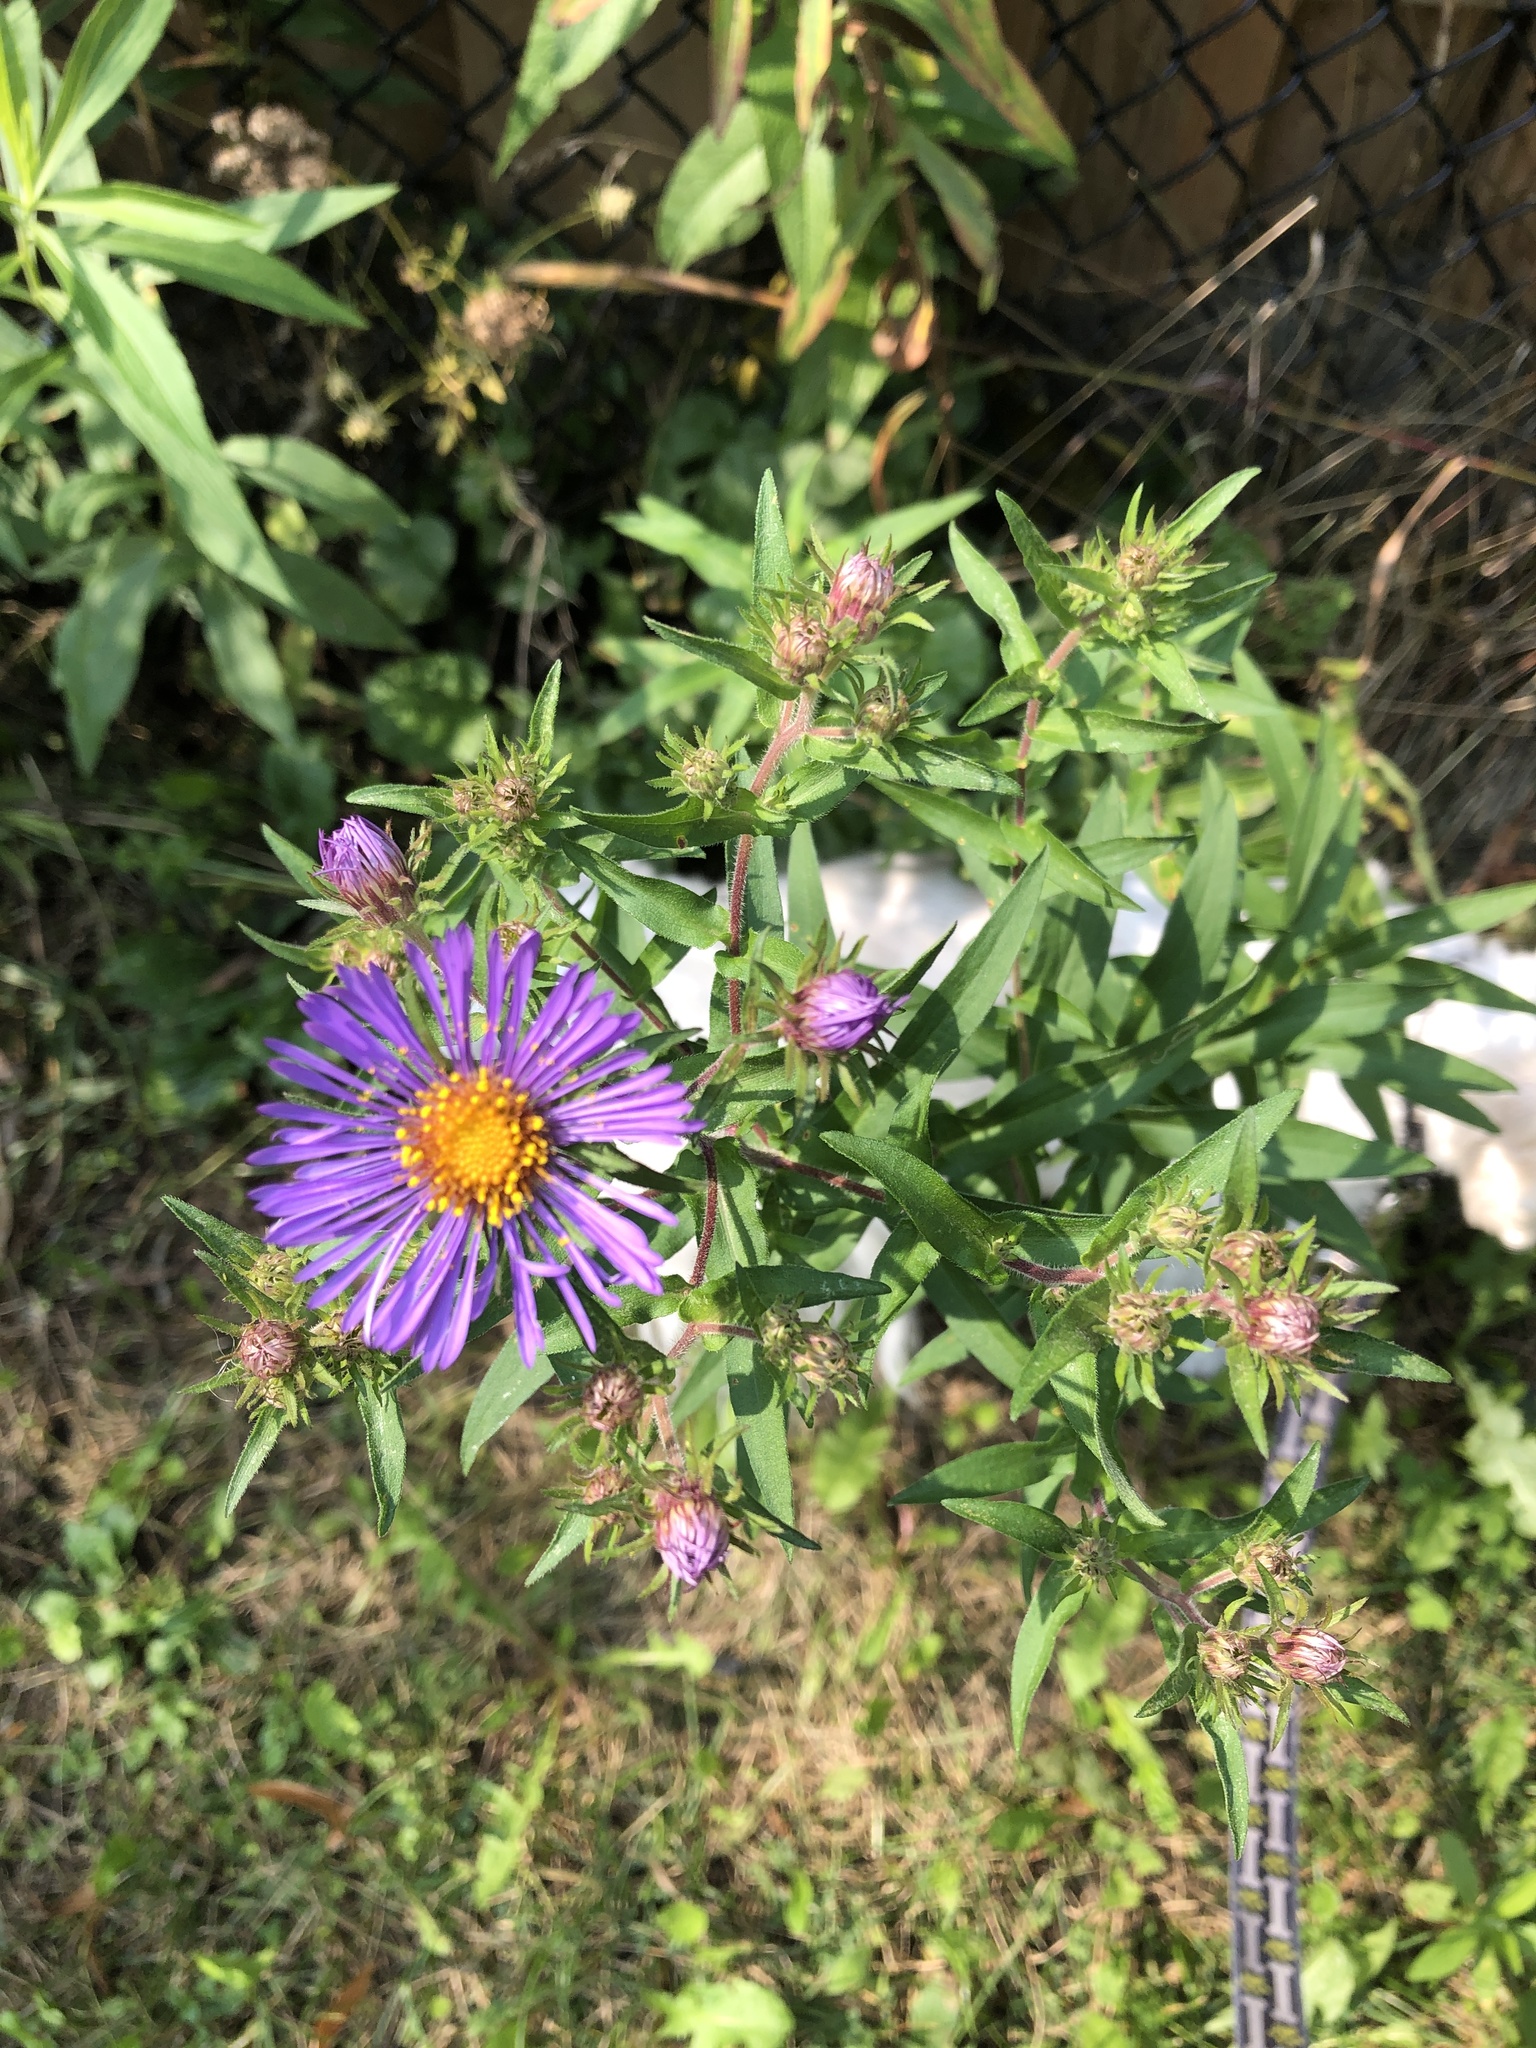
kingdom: Plantae
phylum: Tracheophyta
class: Magnoliopsida
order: Asterales
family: Asteraceae
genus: Symphyotrichum
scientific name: Symphyotrichum novae-angliae
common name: Michaelmas daisy
